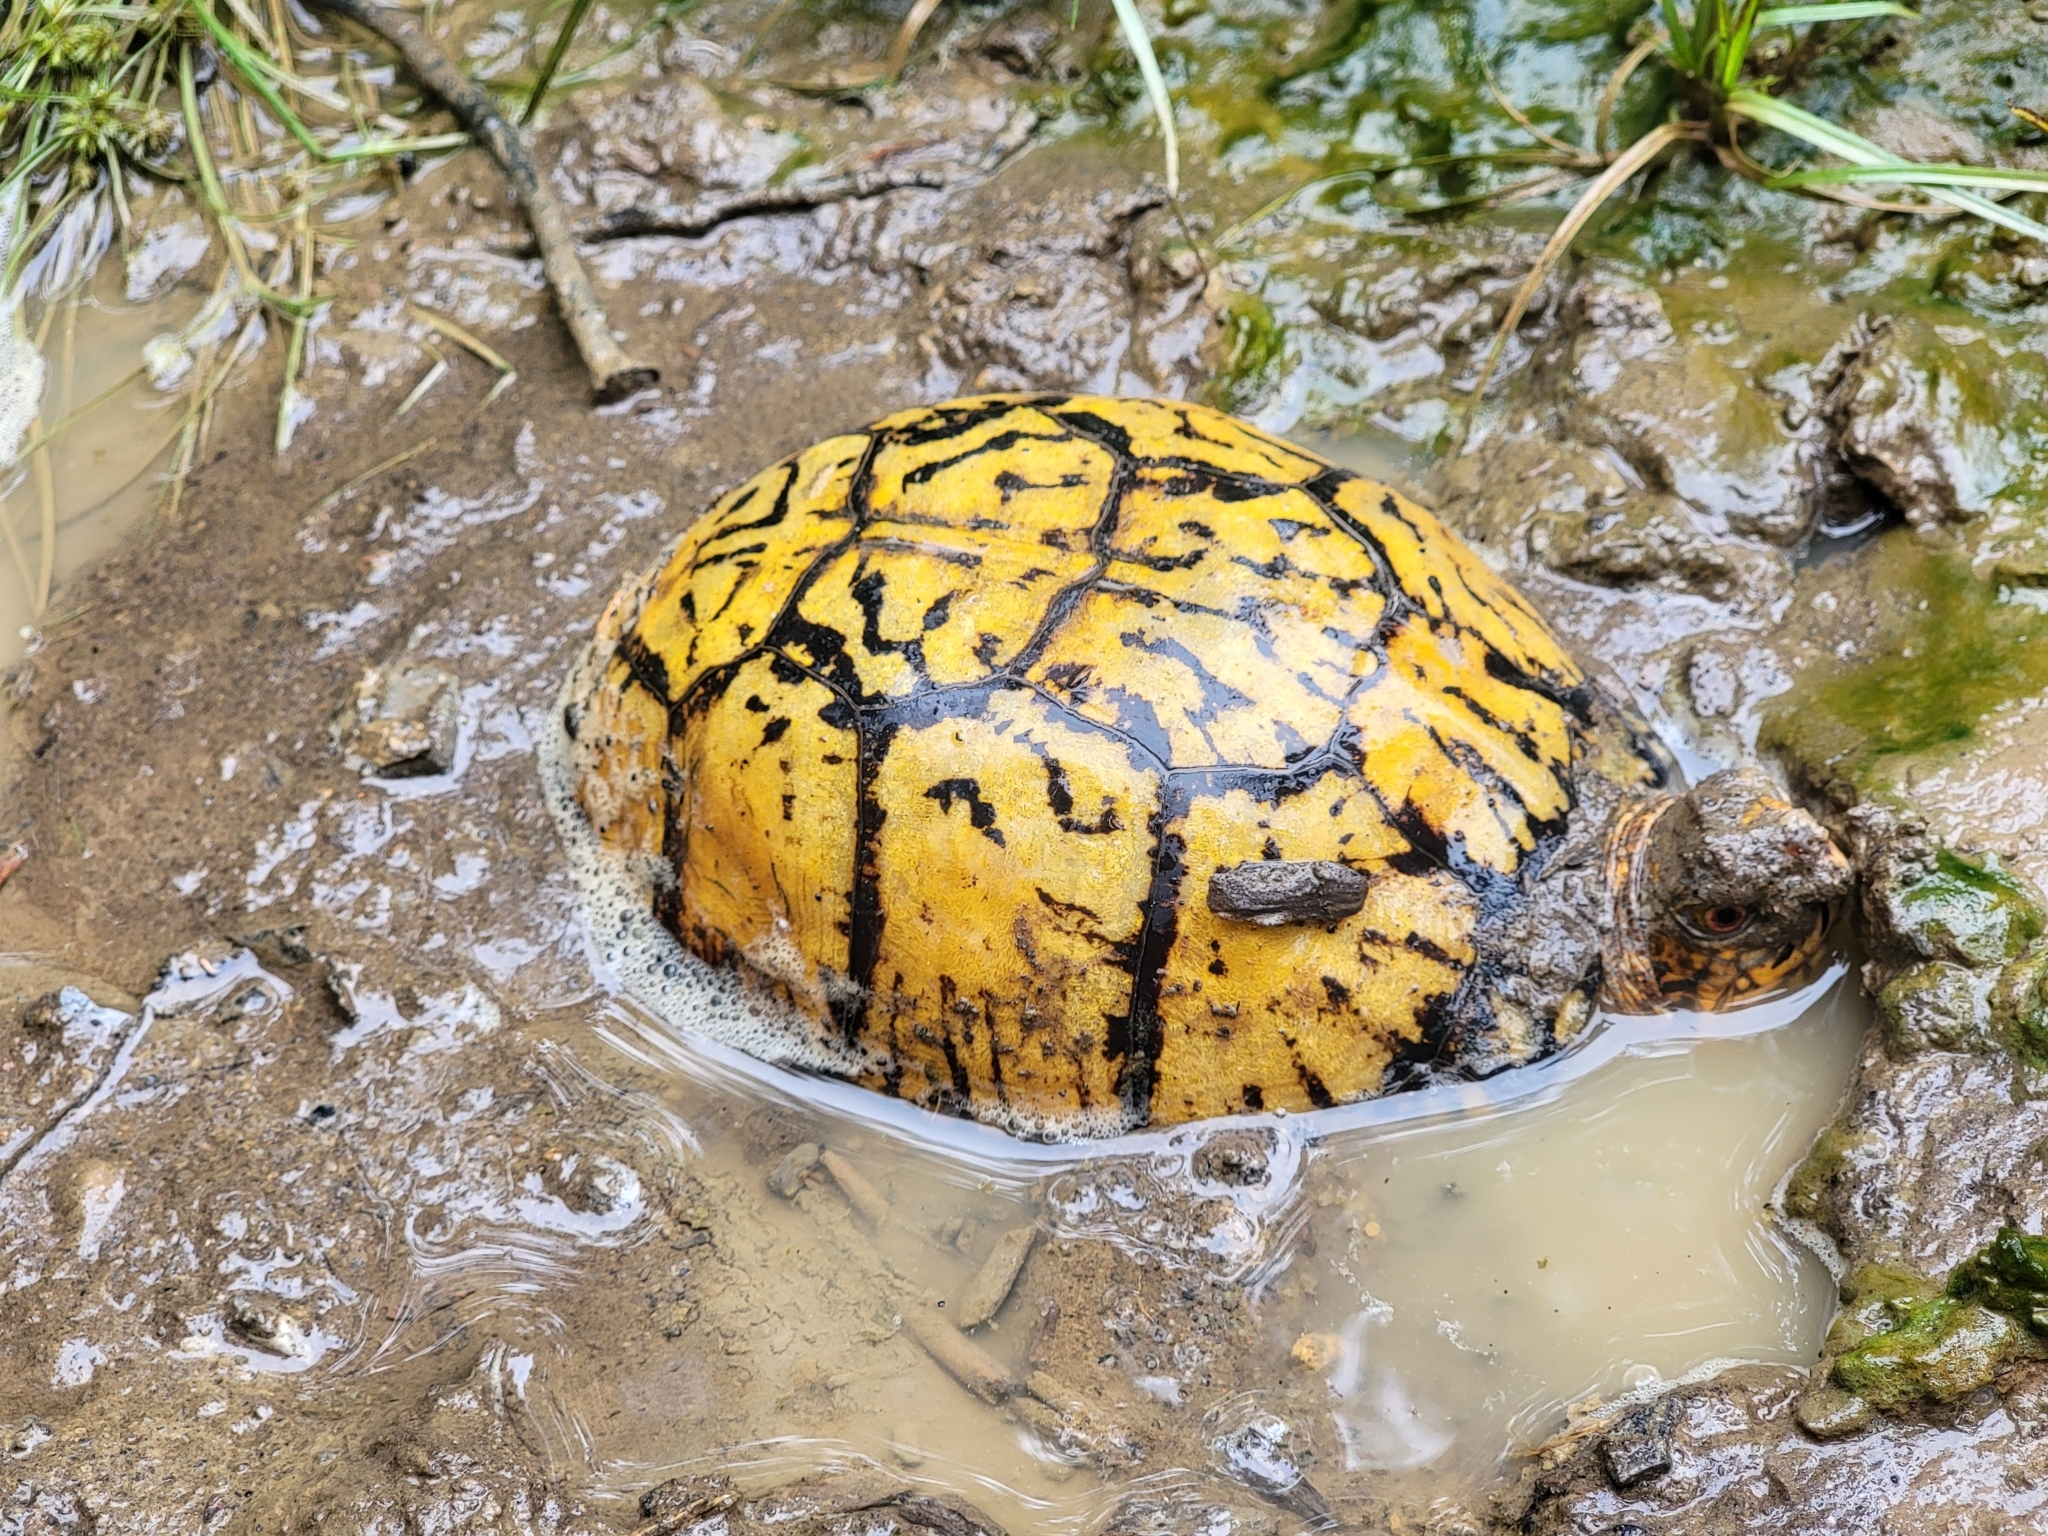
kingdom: Animalia
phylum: Chordata
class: Testudines
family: Emydidae
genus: Terrapene
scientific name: Terrapene carolina
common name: Common box turtle
